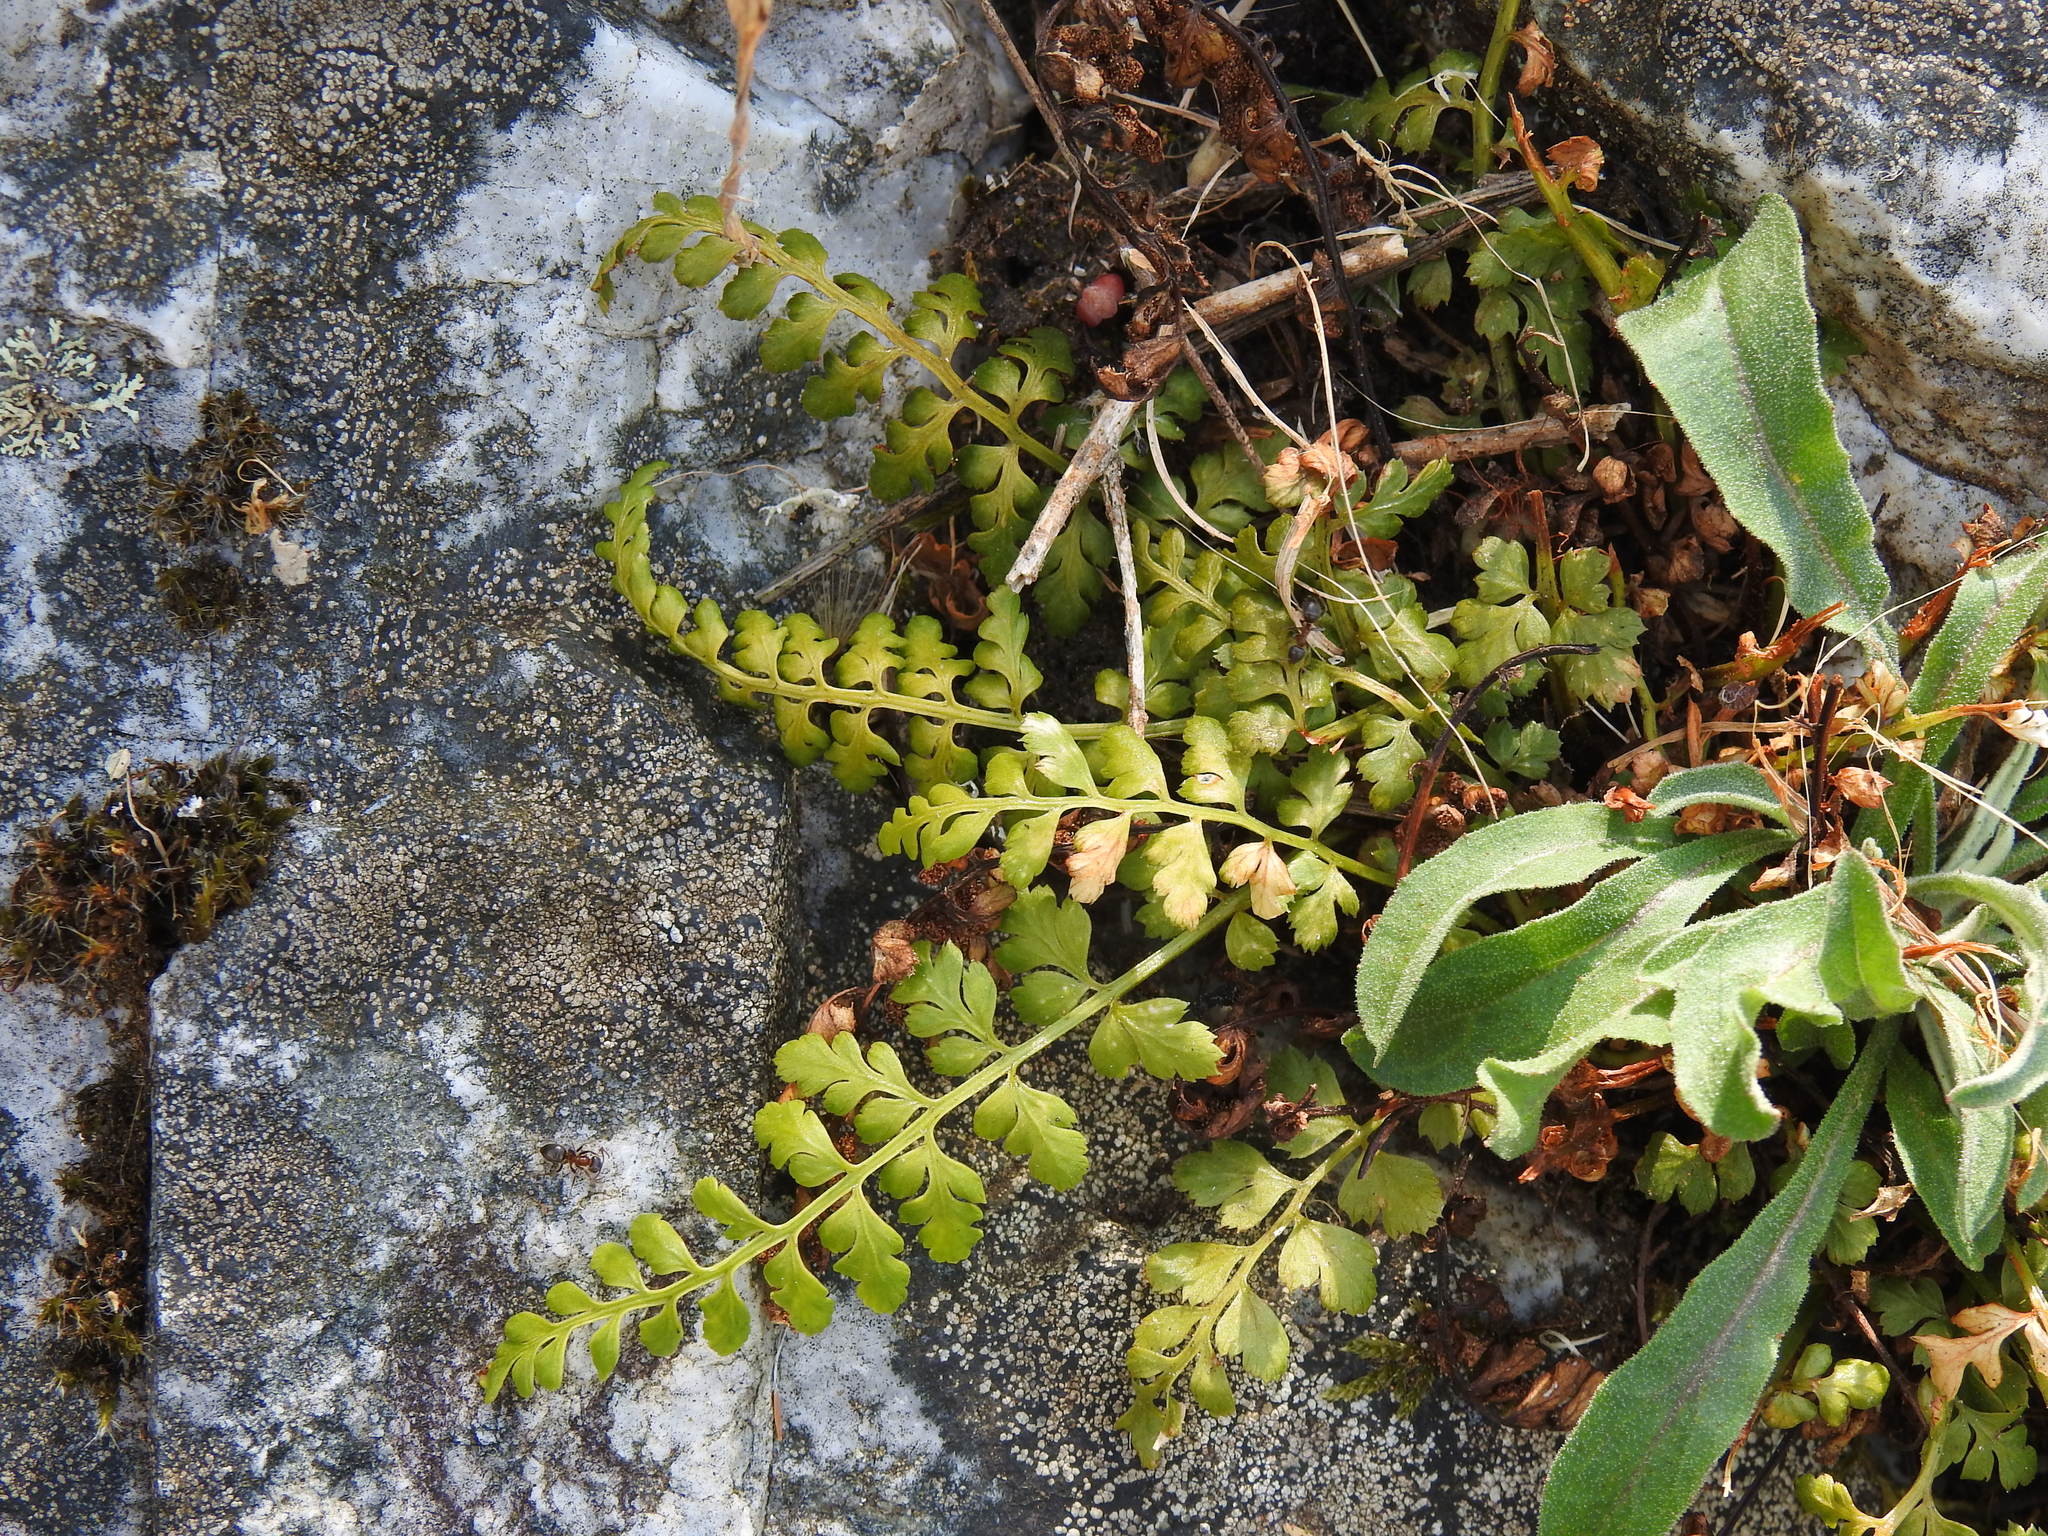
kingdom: Plantae
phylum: Tracheophyta
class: Polypodiopsida
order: Polypodiales
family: Aspleniaceae
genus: Asplenium
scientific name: Asplenium obovatum
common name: Lanceolate spleenwort
